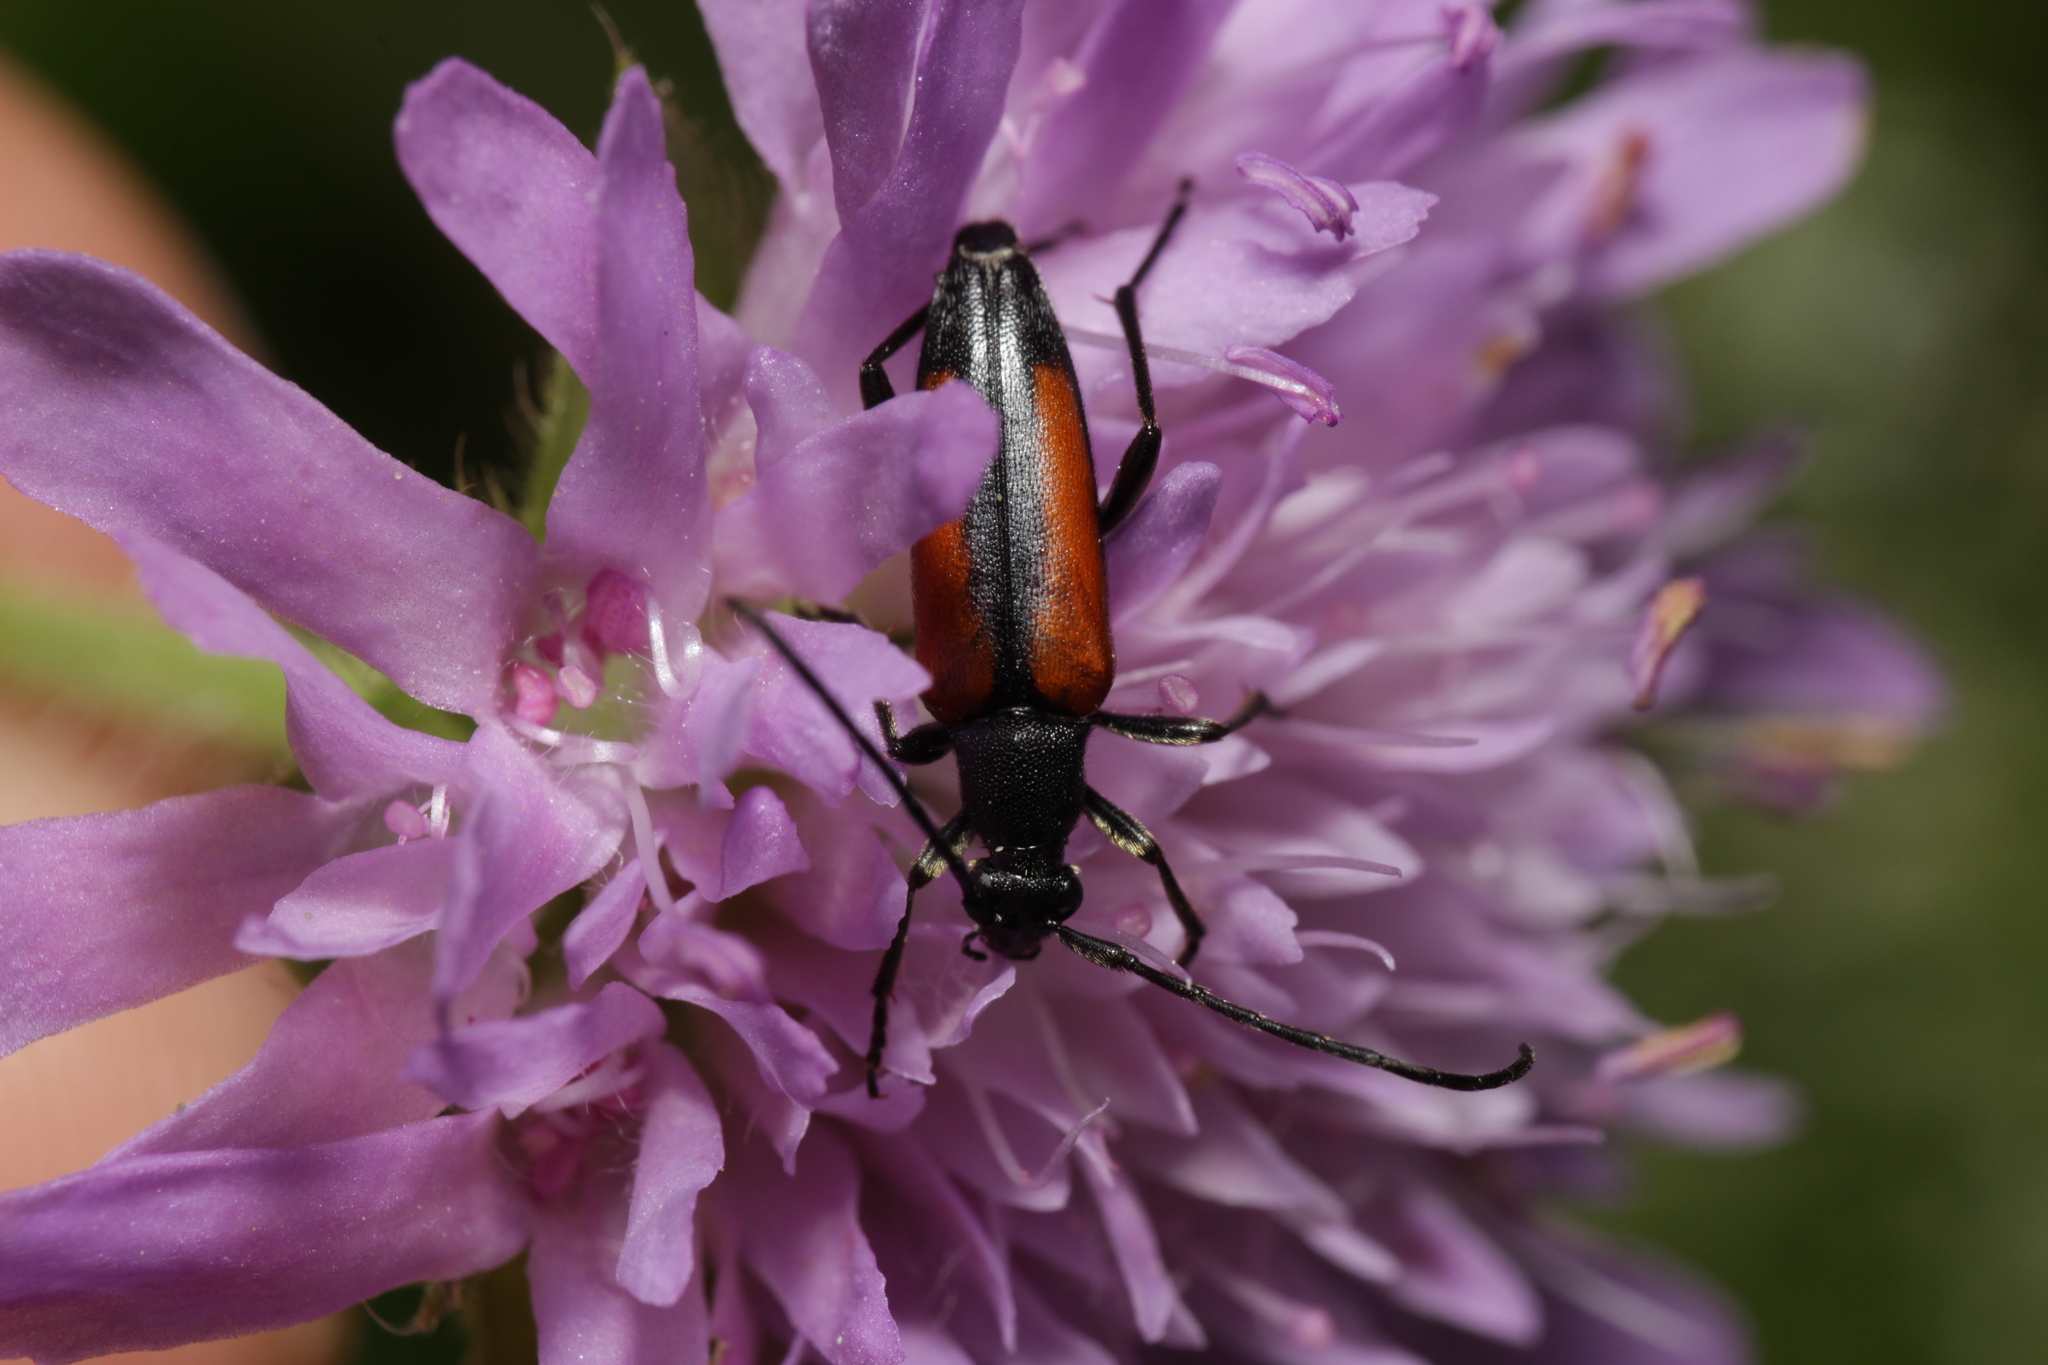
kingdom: Animalia
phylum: Arthropoda
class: Insecta
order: Coleoptera
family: Cerambycidae
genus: Stenurella
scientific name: Stenurella melanura
